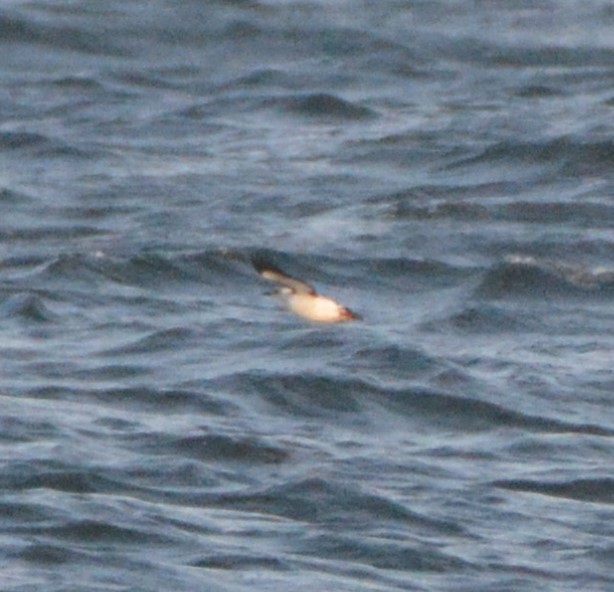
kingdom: Animalia
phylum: Chordata
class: Aves
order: Charadriiformes
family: Alcidae
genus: Cepphus
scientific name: Cepphus grylle
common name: Black guillemot
